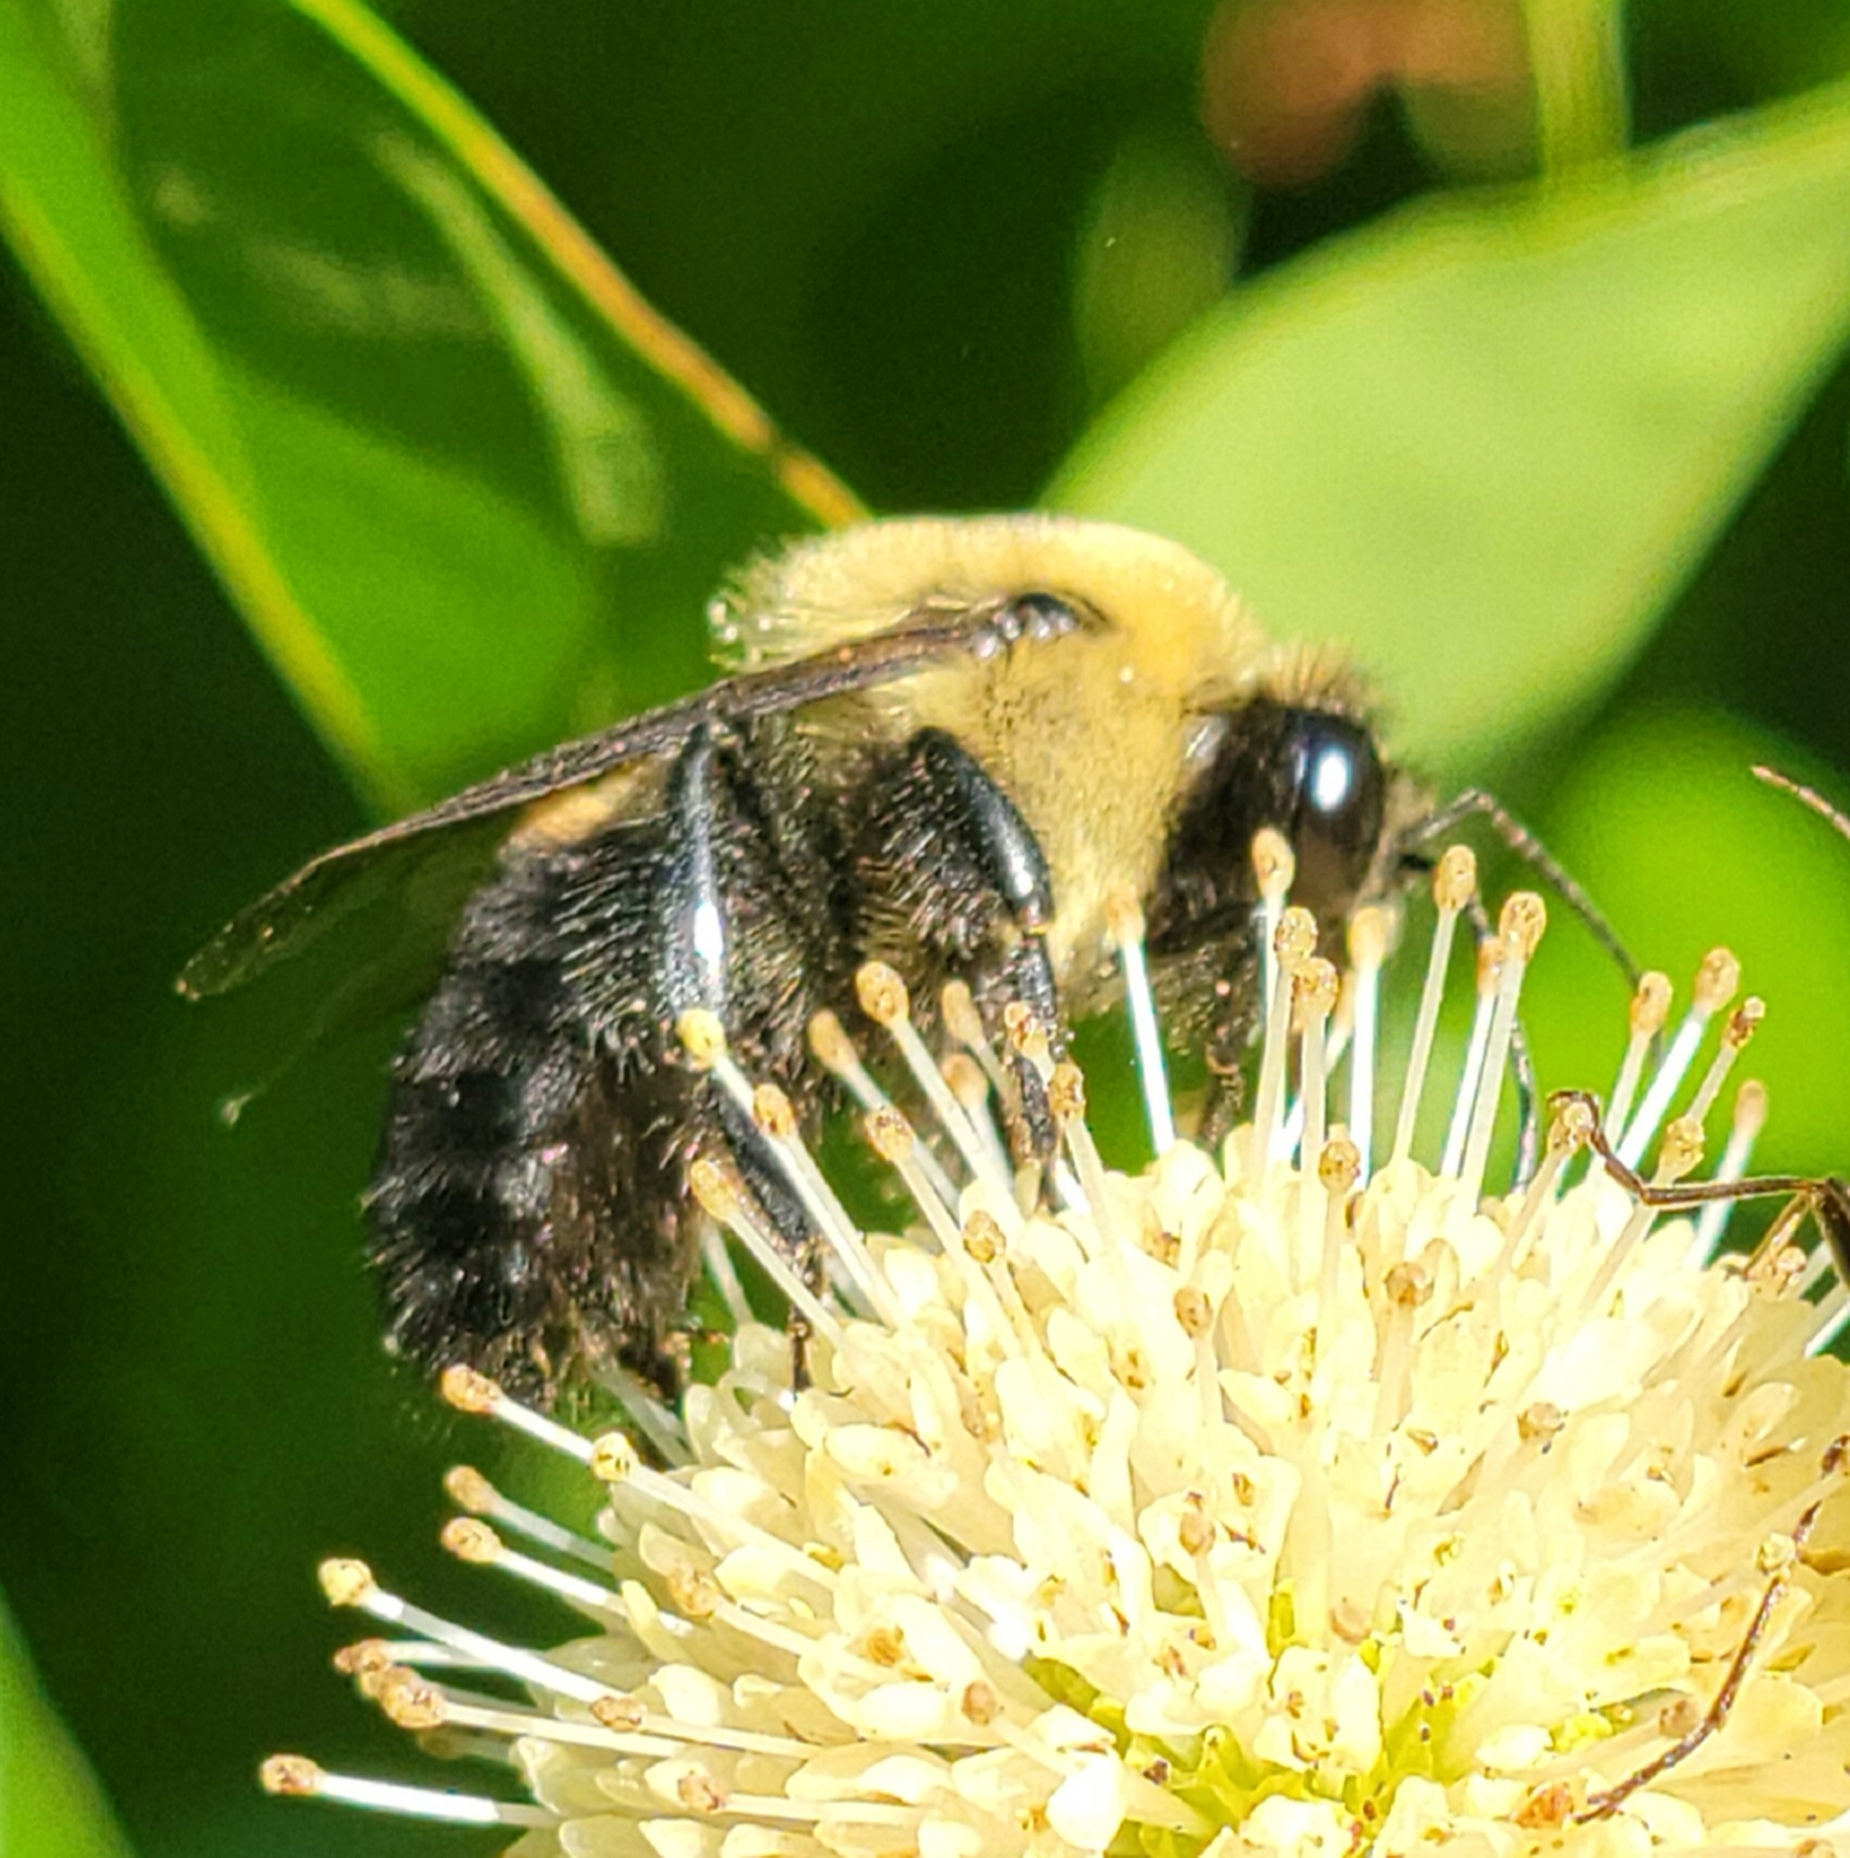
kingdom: Animalia
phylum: Arthropoda
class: Insecta
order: Hymenoptera
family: Apidae
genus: Bombus
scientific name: Bombus griseocollis
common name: Brown-belted bumble bee
